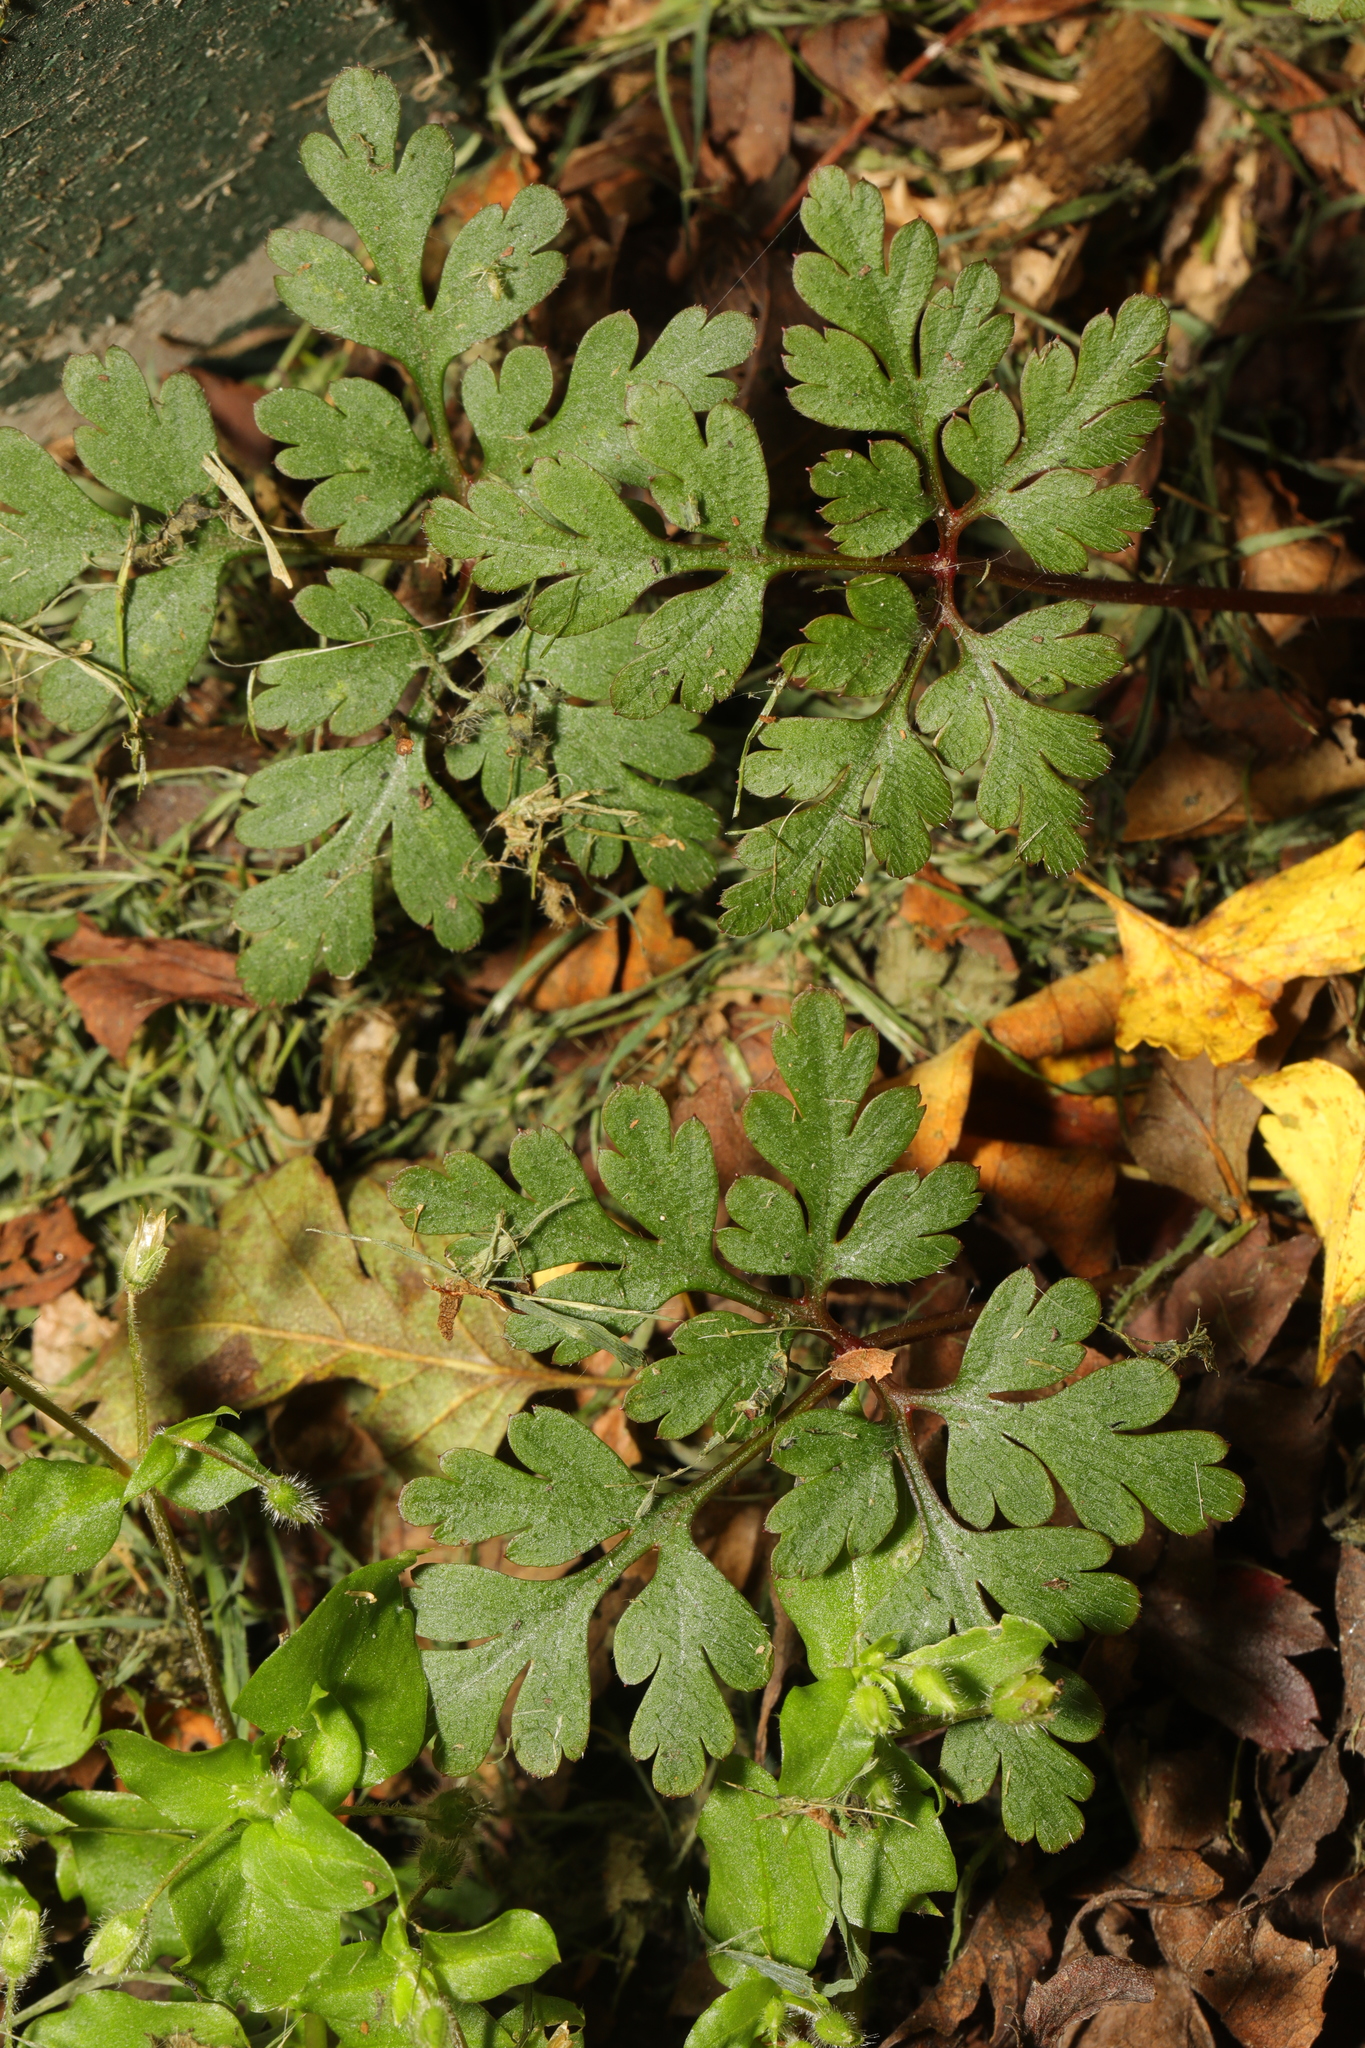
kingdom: Plantae
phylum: Tracheophyta
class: Magnoliopsida
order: Geraniales
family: Geraniaceae
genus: Geranium
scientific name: Geranium robertianum
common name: Herb-robert
